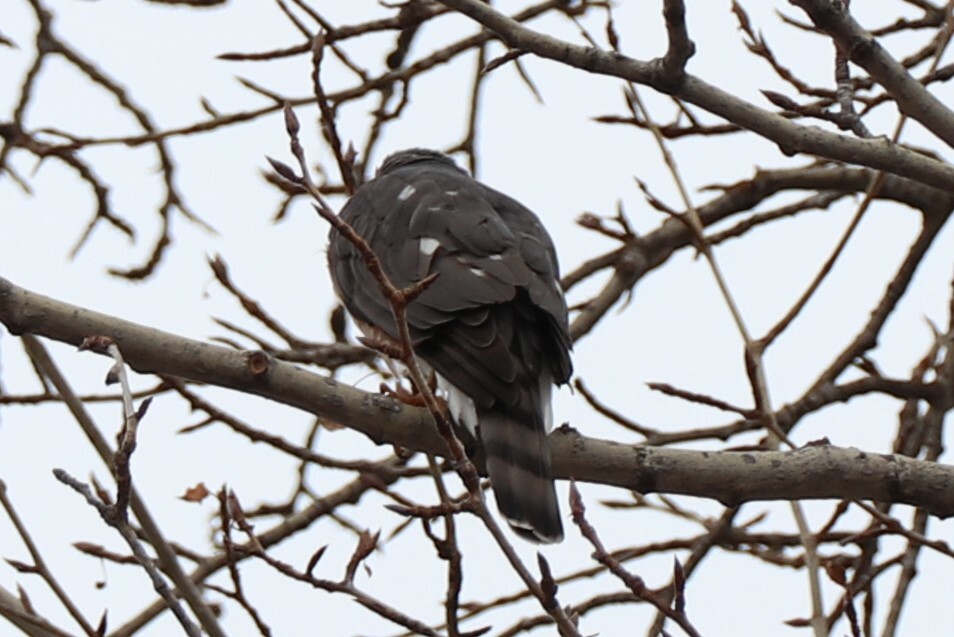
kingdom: Animalia
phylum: Chordata
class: Aves
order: Accipitriformes
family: Accipitridae
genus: Accipiter
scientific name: Accipiter striatus
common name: Sharp-shinned hawk
